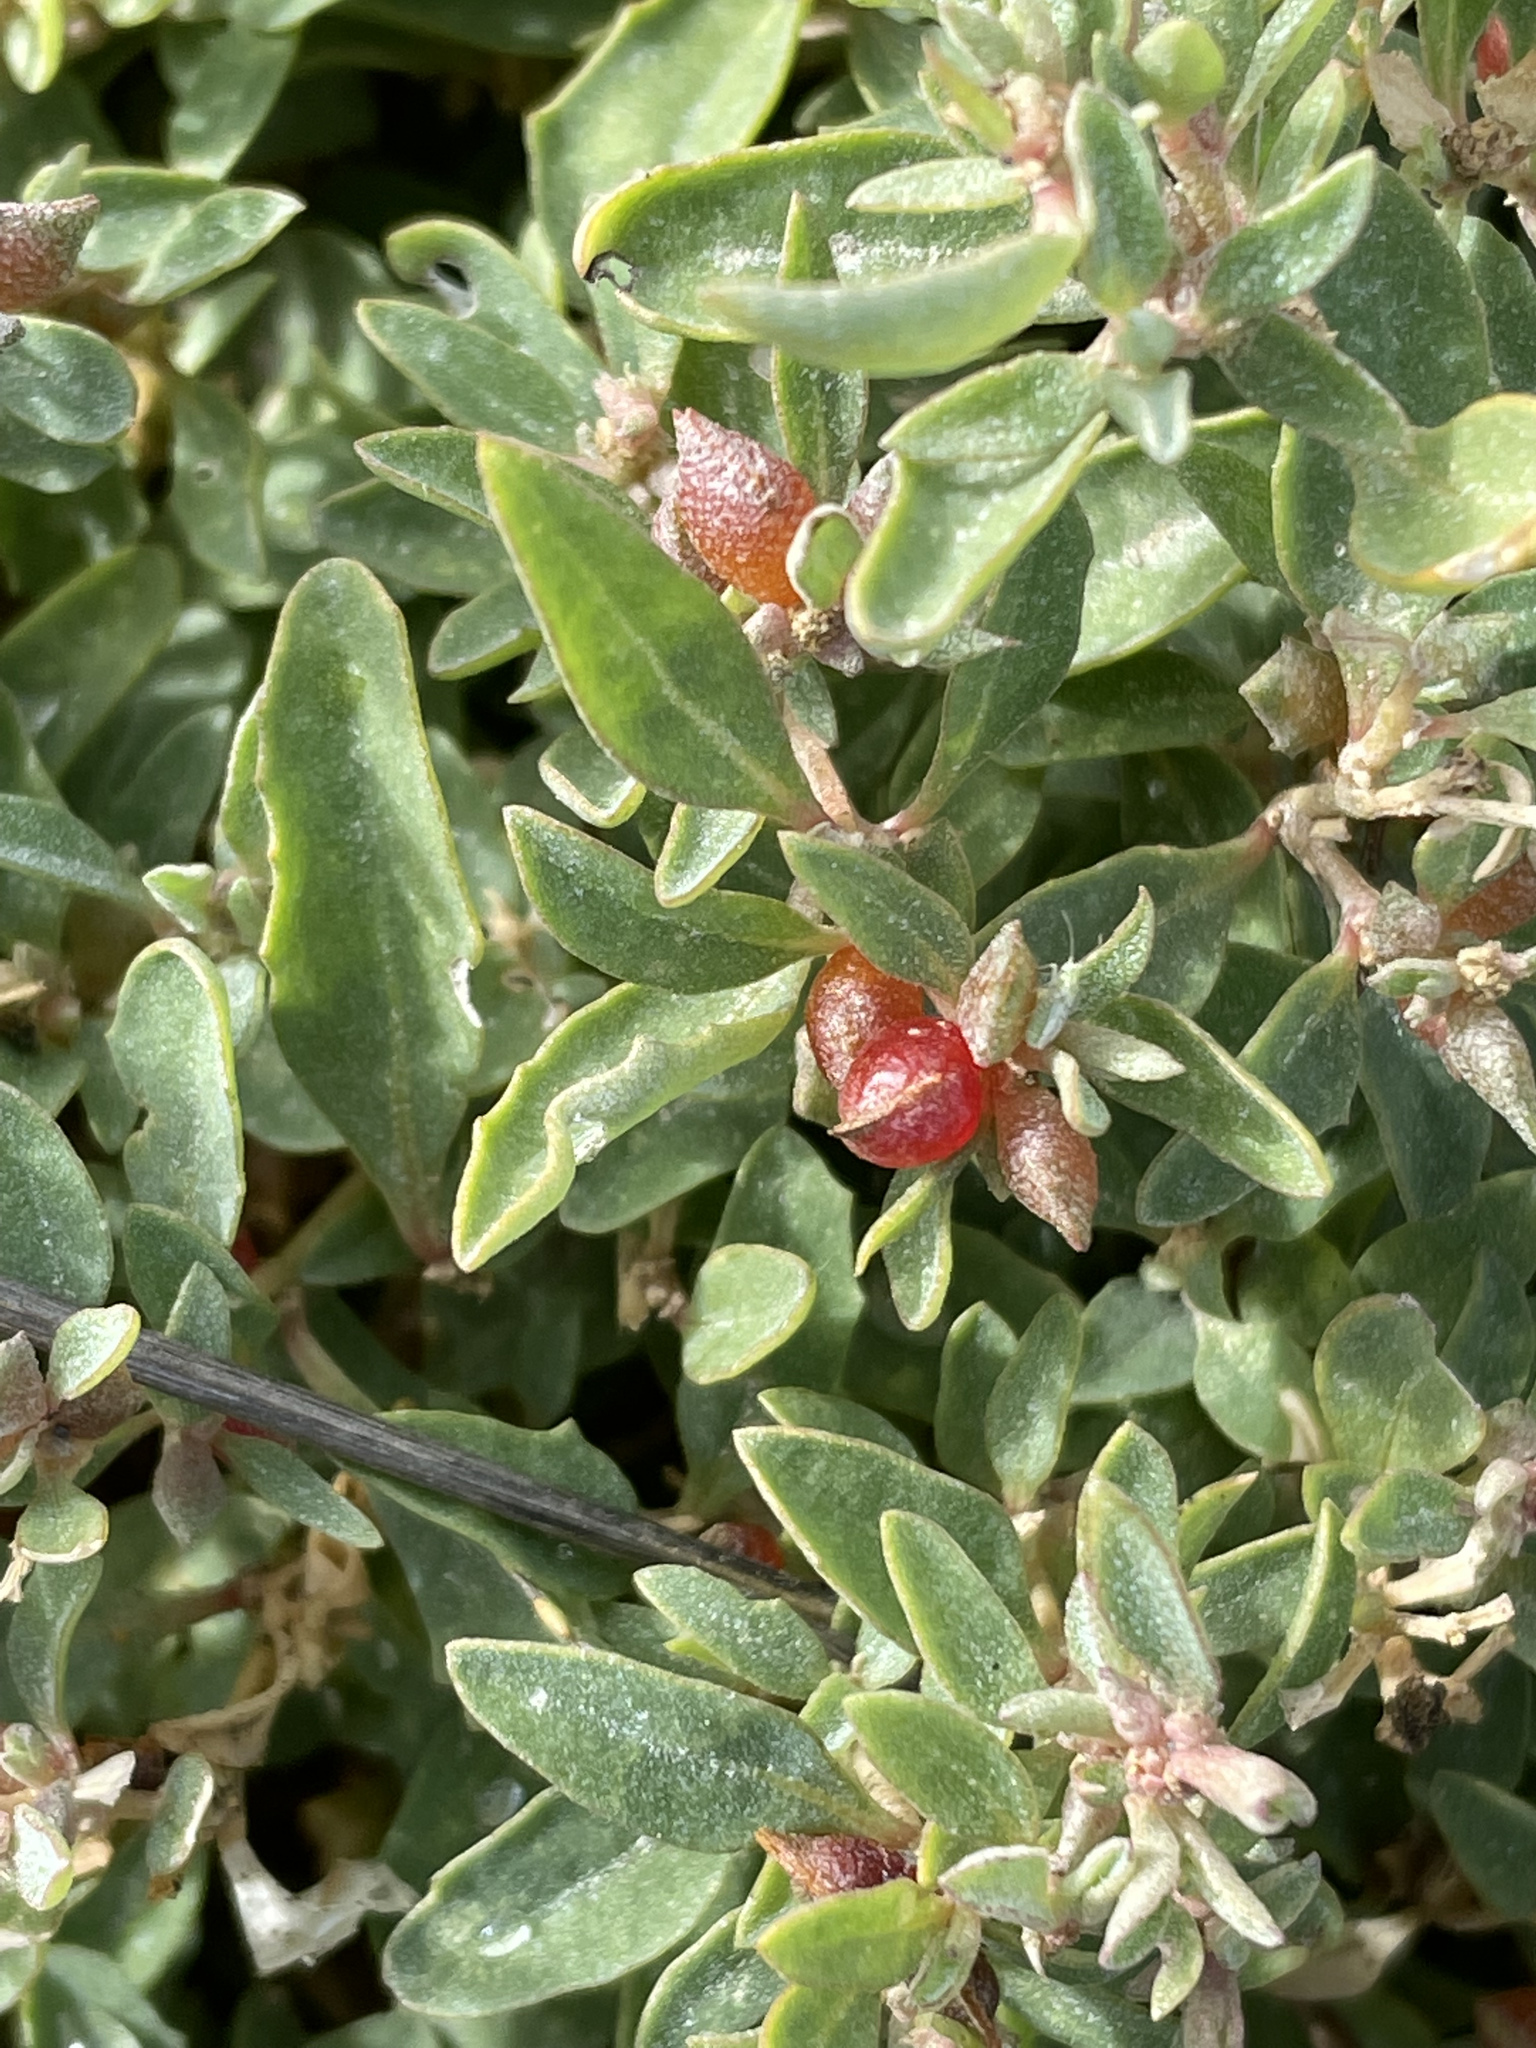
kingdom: Plantae
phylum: Tracheophyta
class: Magnoliopsida
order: Caryophyllales
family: Amaranthaceae
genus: Atriplex
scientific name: Atriplex semibaccata
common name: Australian saltbush
